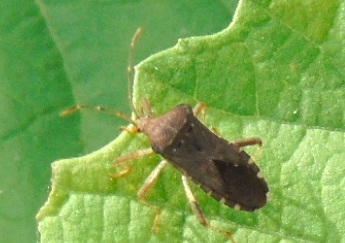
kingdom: Animalia
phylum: Arthropoda
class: Insecta
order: Hemiptera
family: Coreidae
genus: Anasa
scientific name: Anasa scorbutica
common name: Squash bug
